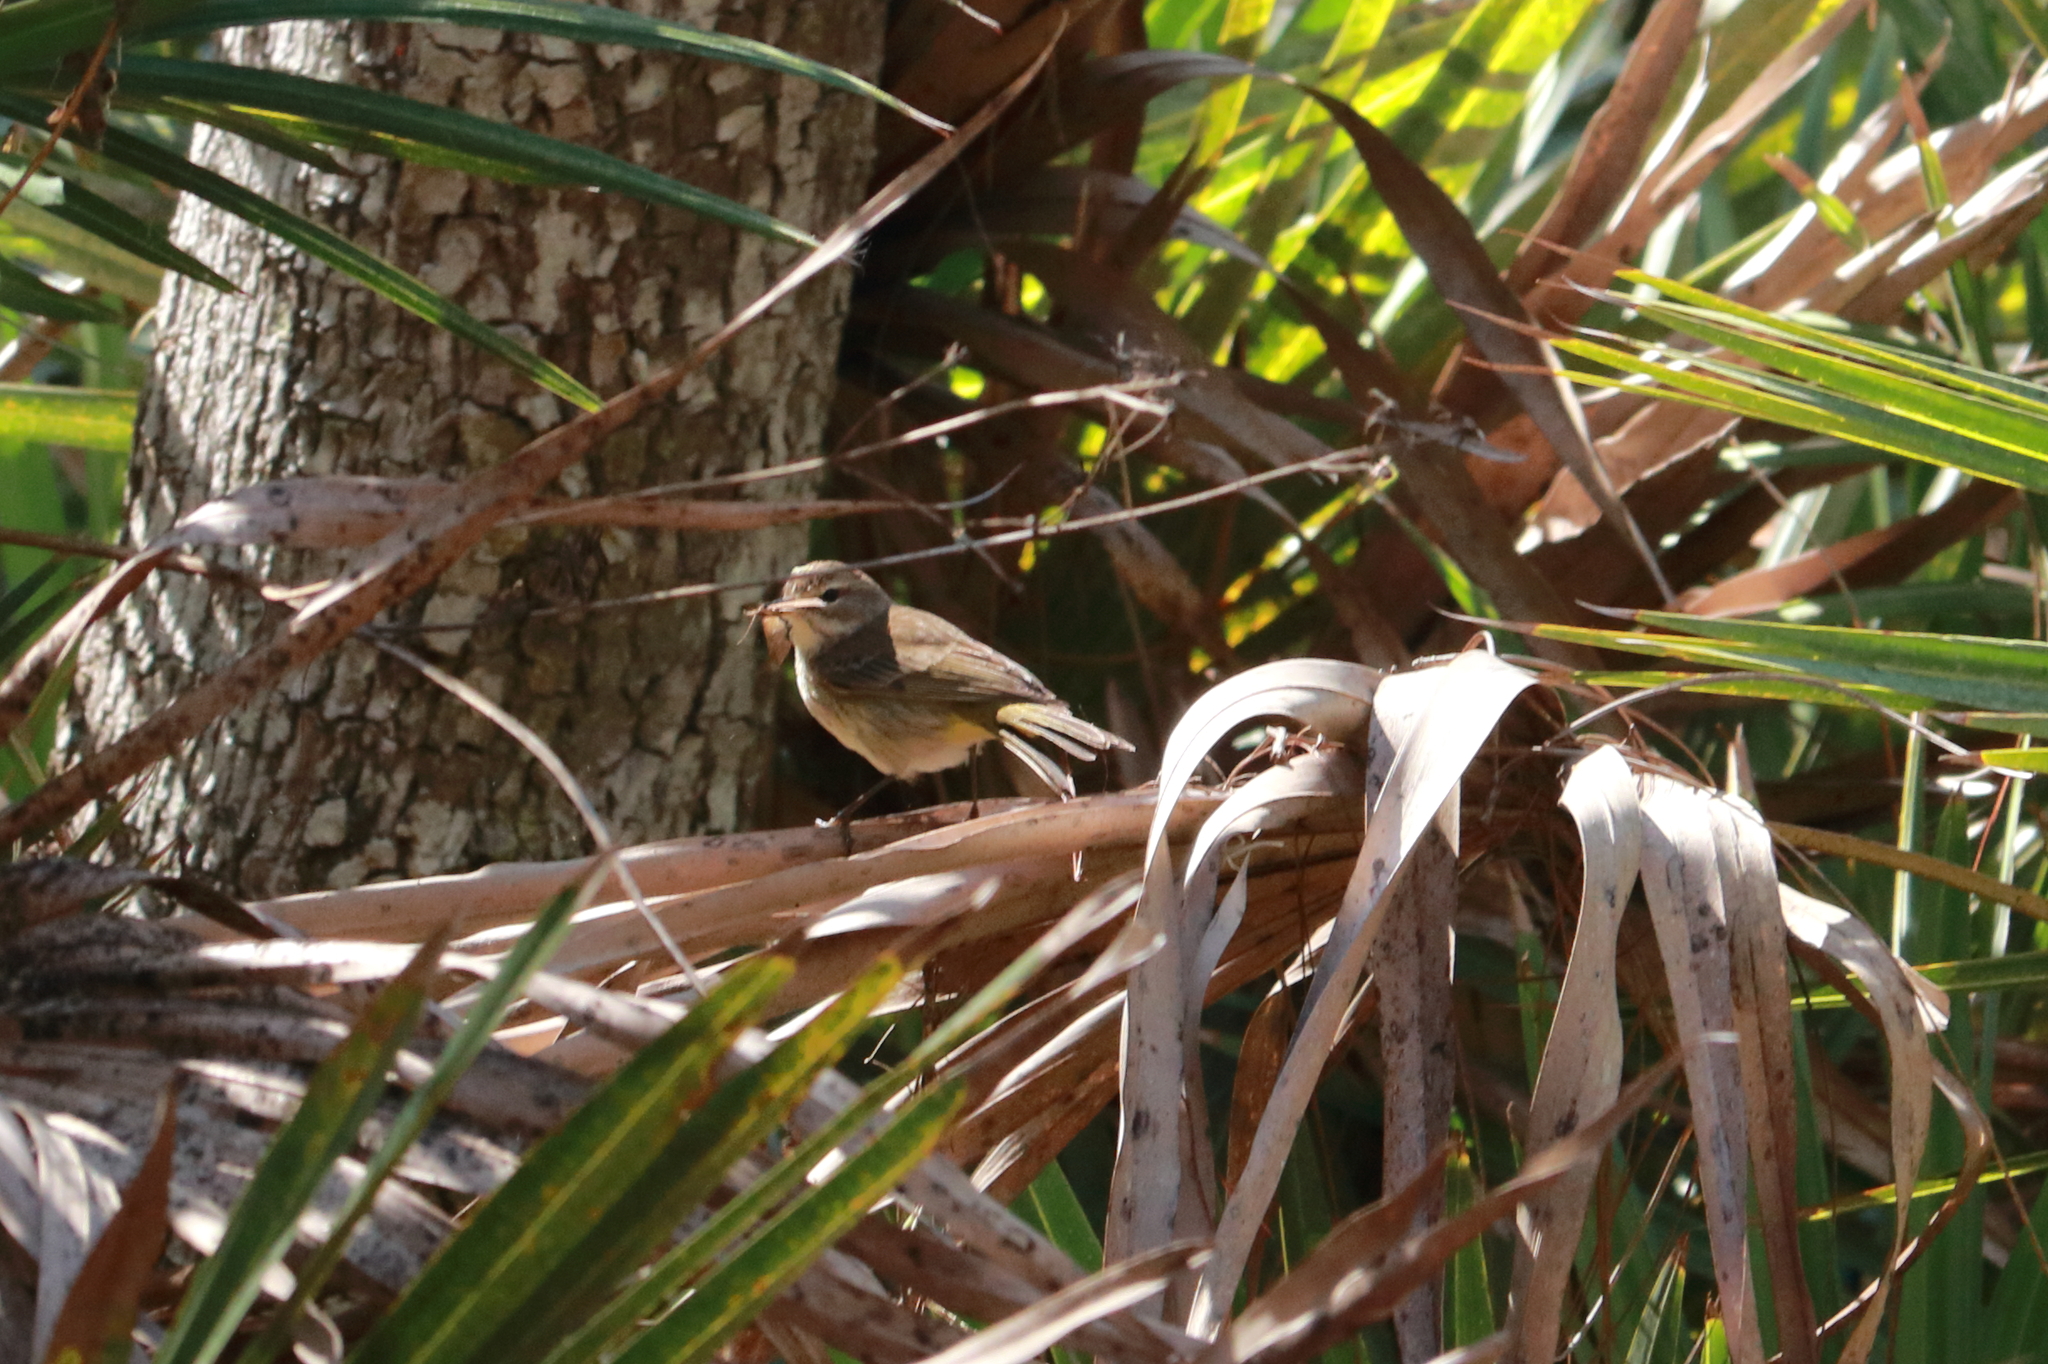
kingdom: Animalia
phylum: Chordata
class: Aves
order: Passeriformes
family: Parulidae
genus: Setophaga
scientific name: Setophaga palmarum
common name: Palm warbler
